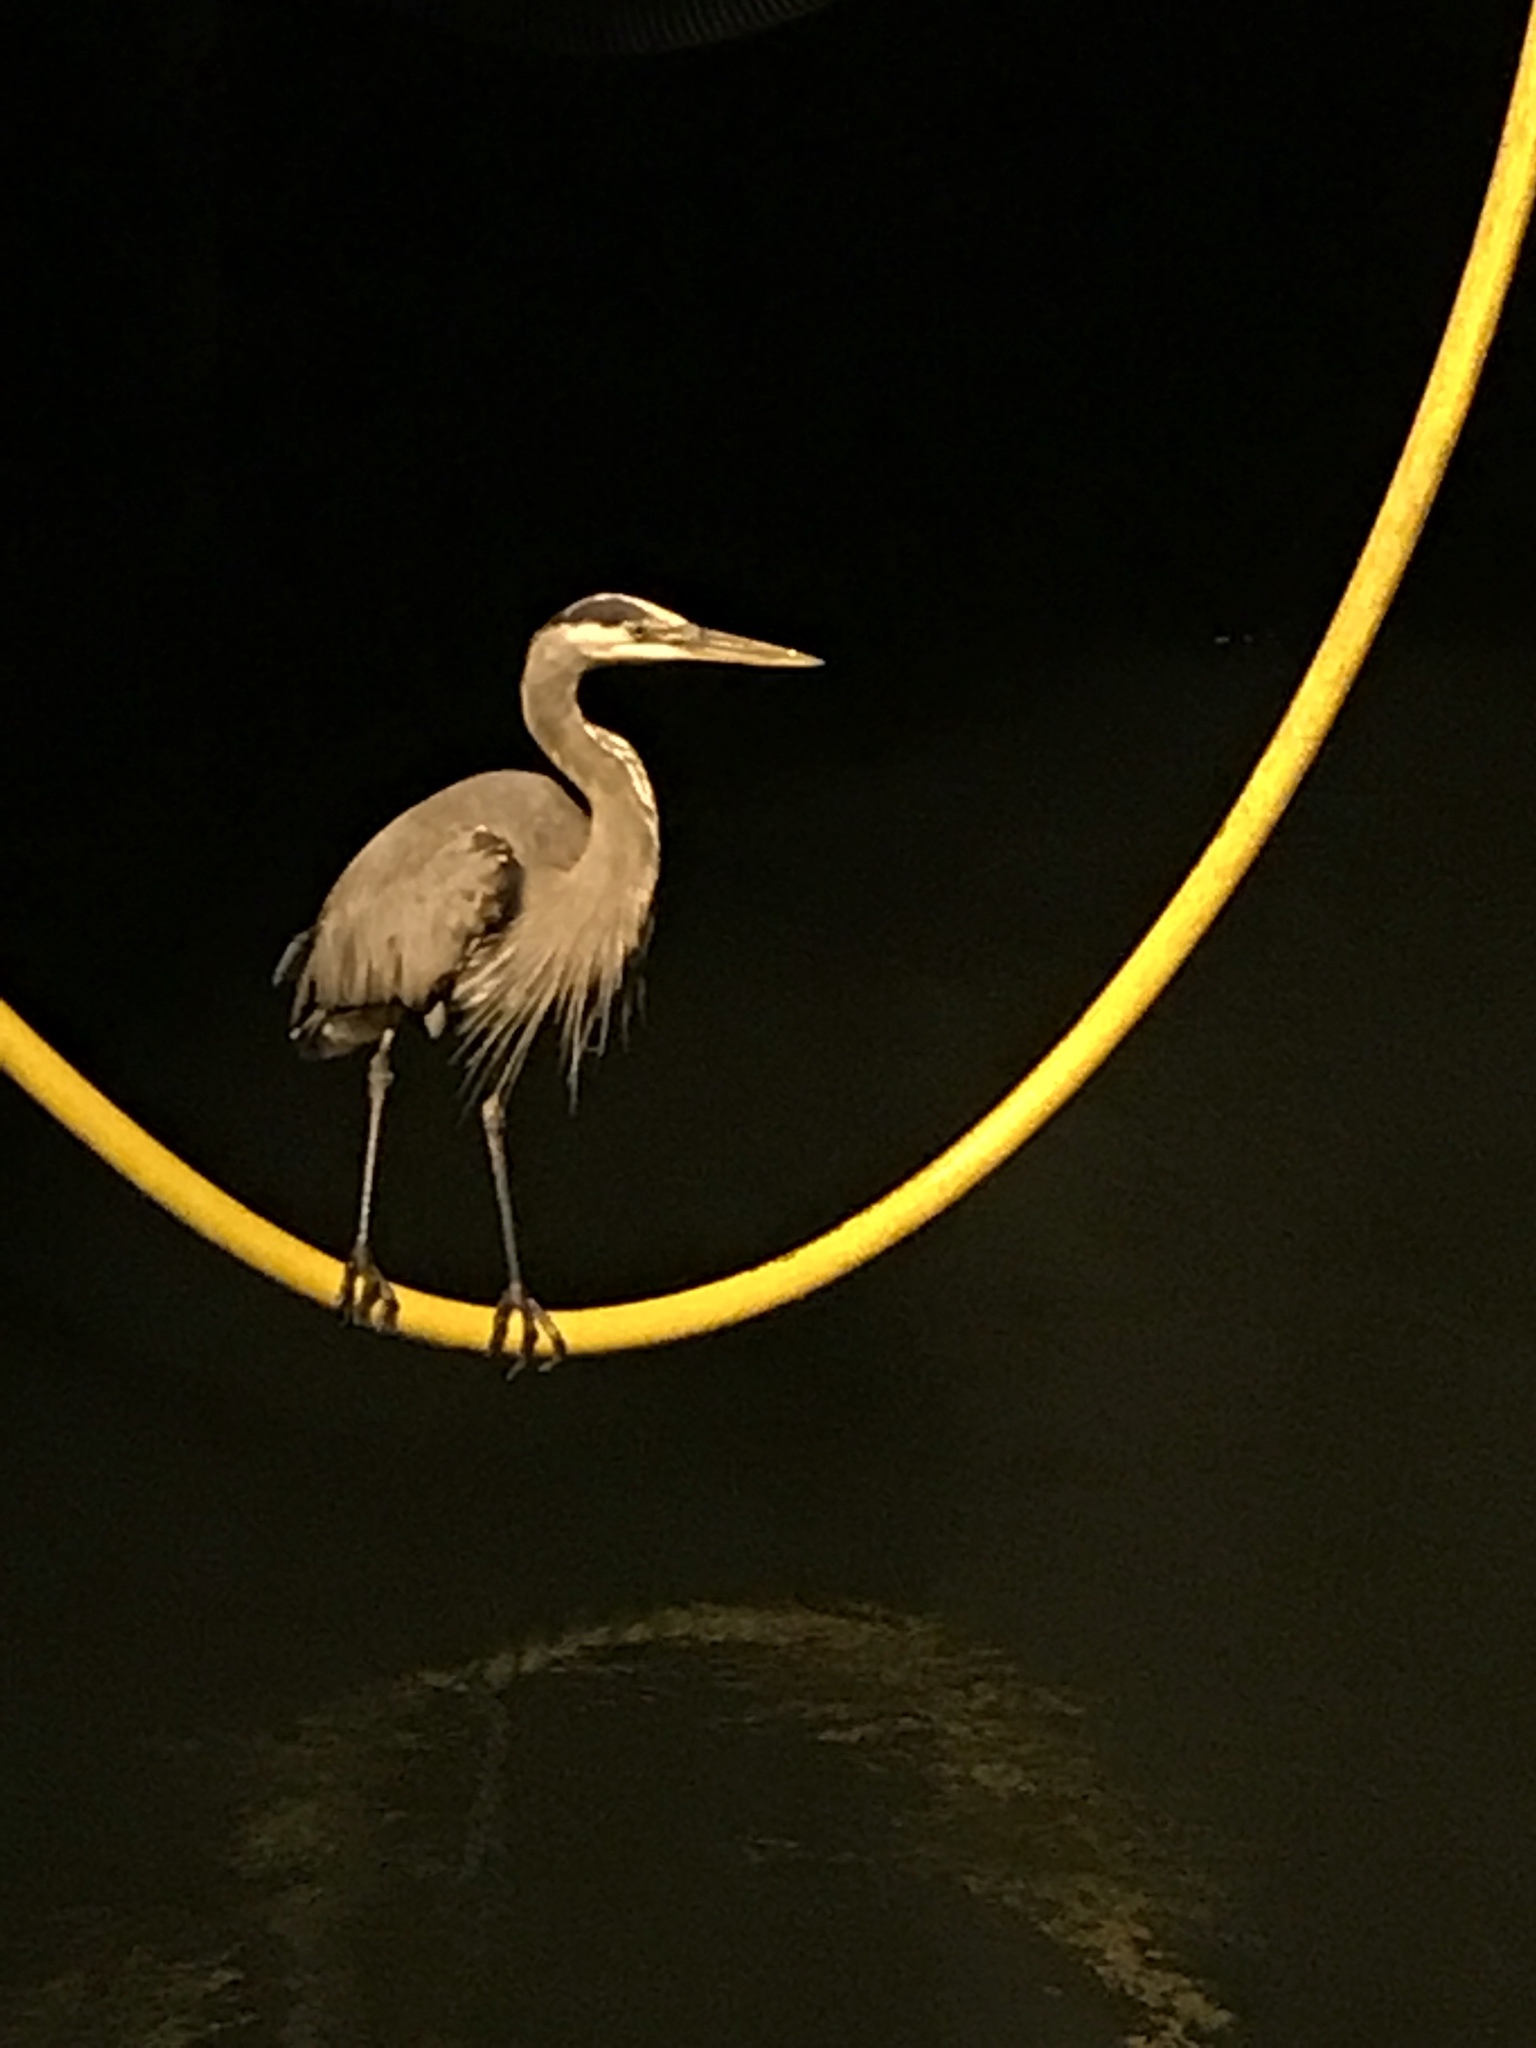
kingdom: Animalia
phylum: Chordata
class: Aves
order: Pelecaniformes
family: Ardeidae
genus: Ardea
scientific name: Ardea herodias
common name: Great blue heron
